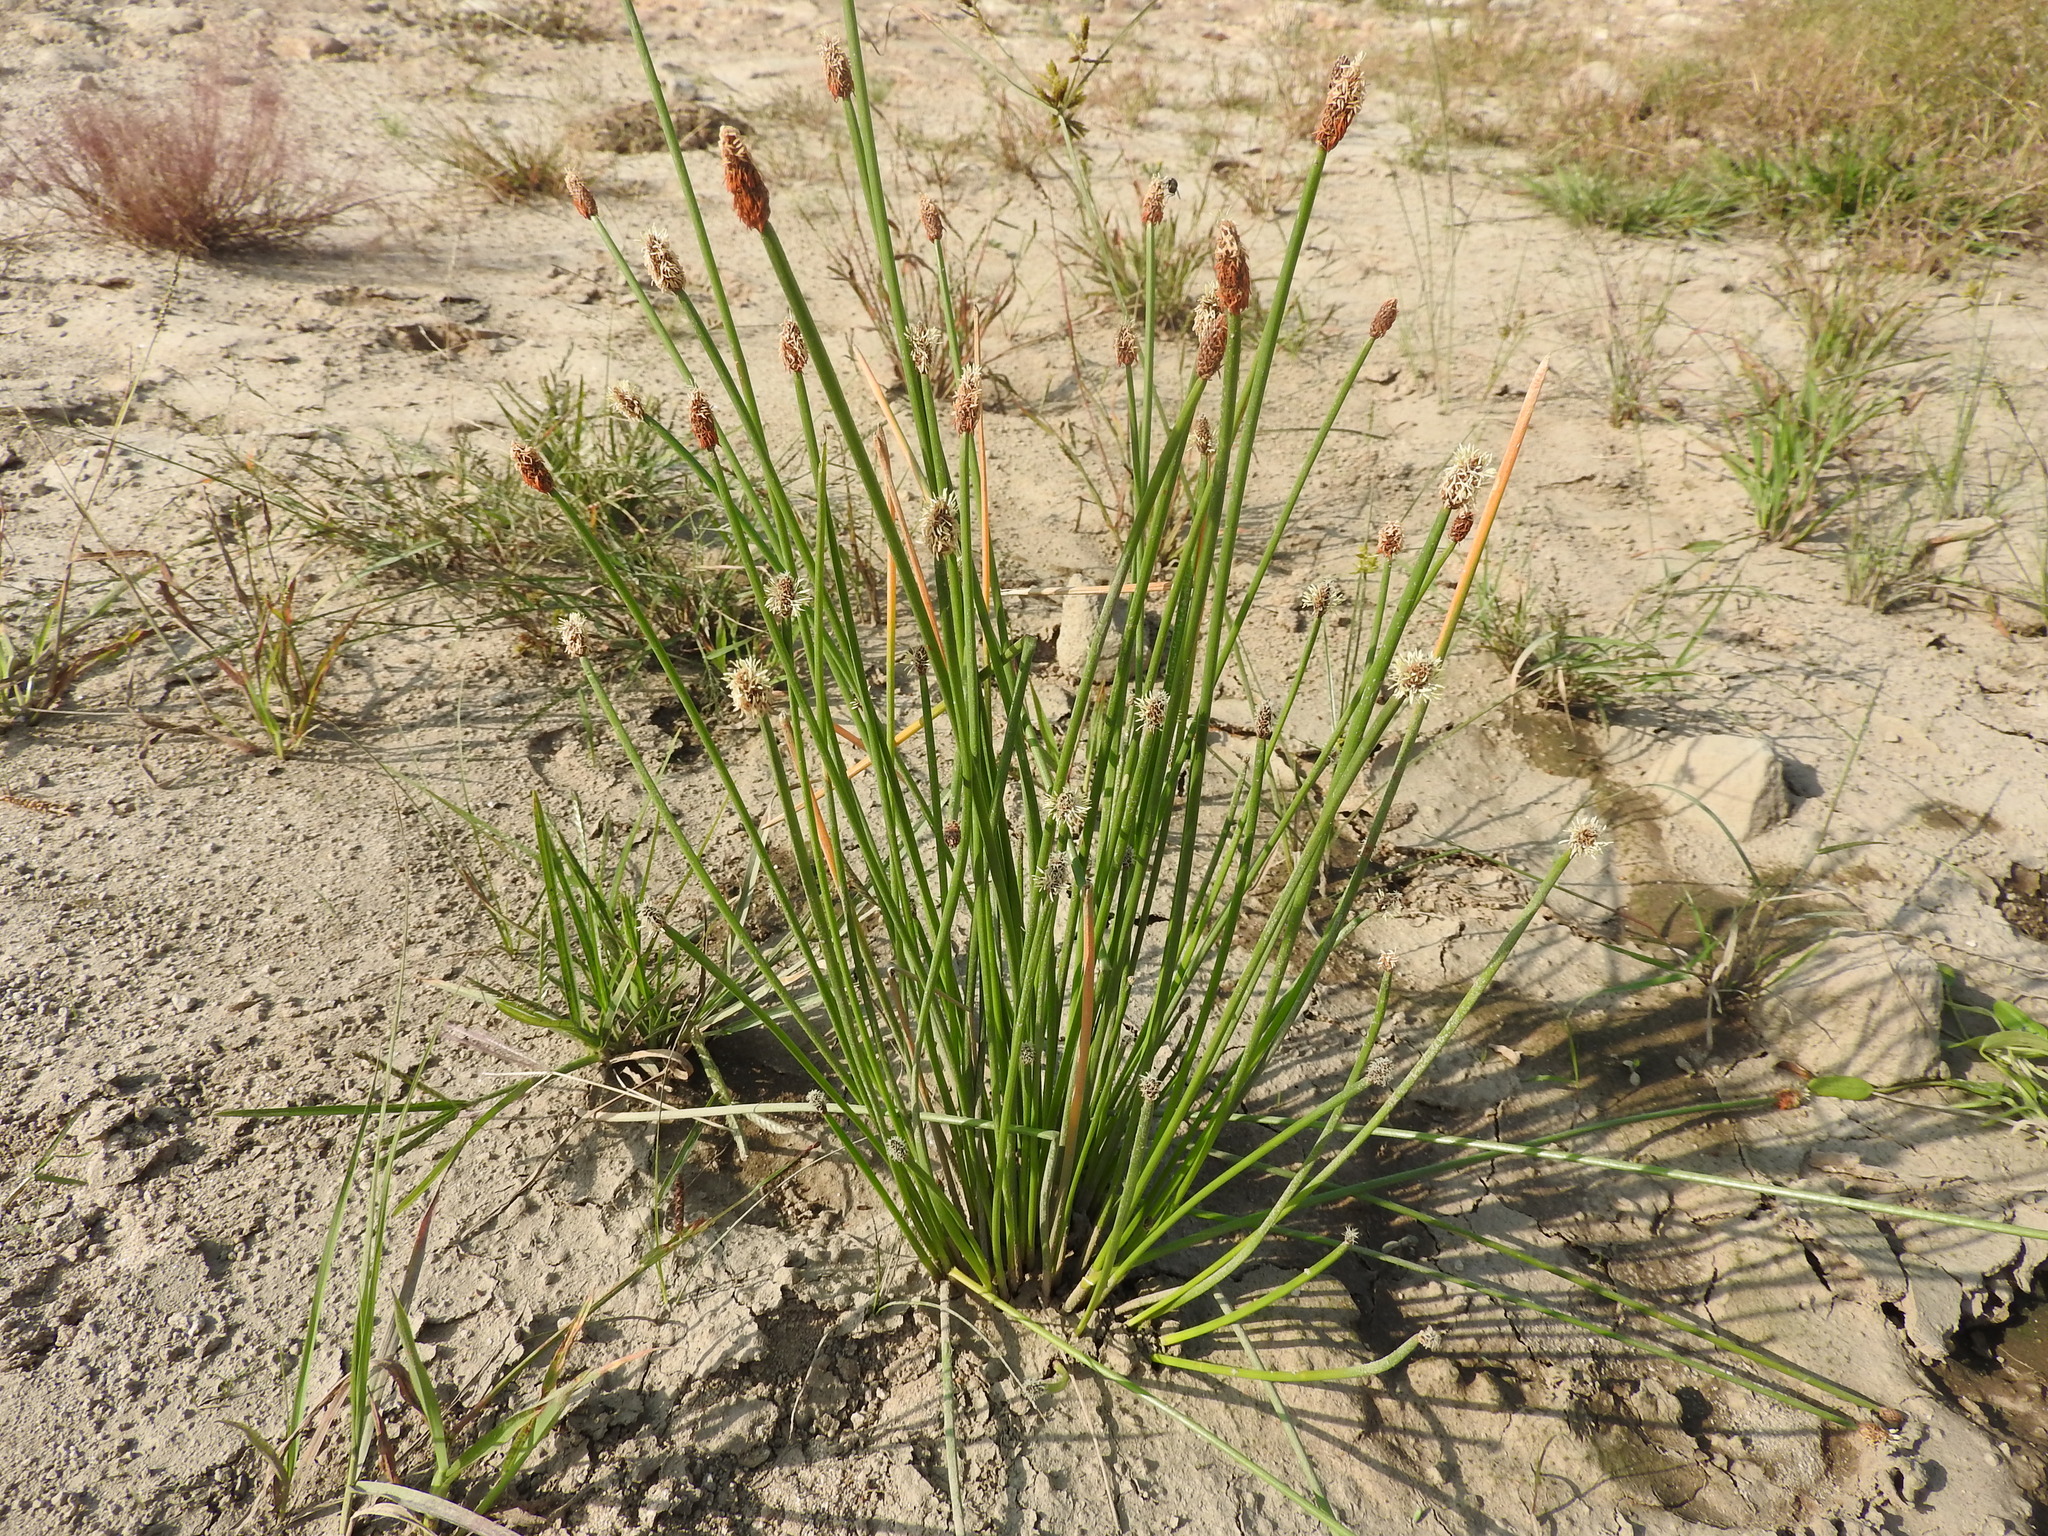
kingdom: Plantae
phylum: Tracheophyta
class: Liliopsida
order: Poales
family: Cyperaceae
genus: Eleocharis
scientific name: Eleocharis palustris
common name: Common spike-rush
